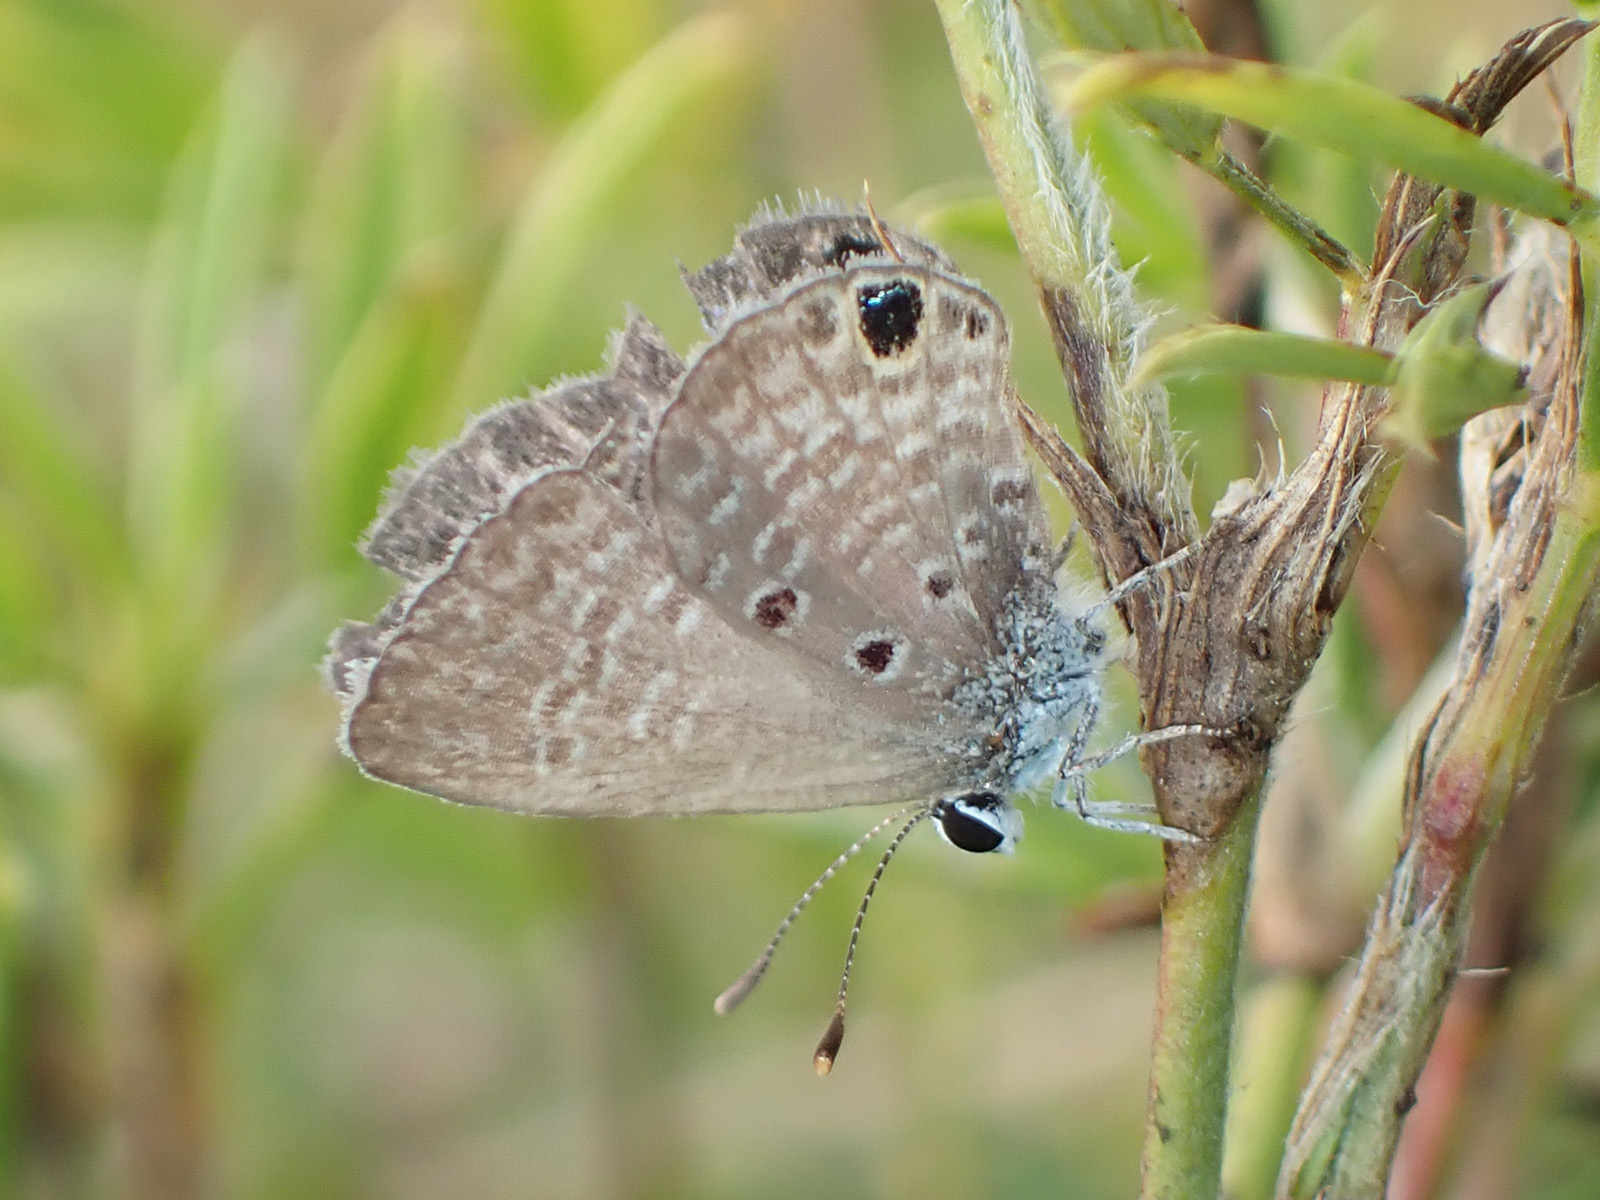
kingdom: Animalia
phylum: Arthropoda
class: Insecta
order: Lepidoptera
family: Lycaenidae
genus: Hemiargus
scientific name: Hemiargus ceraunus
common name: Ceraunus blue
